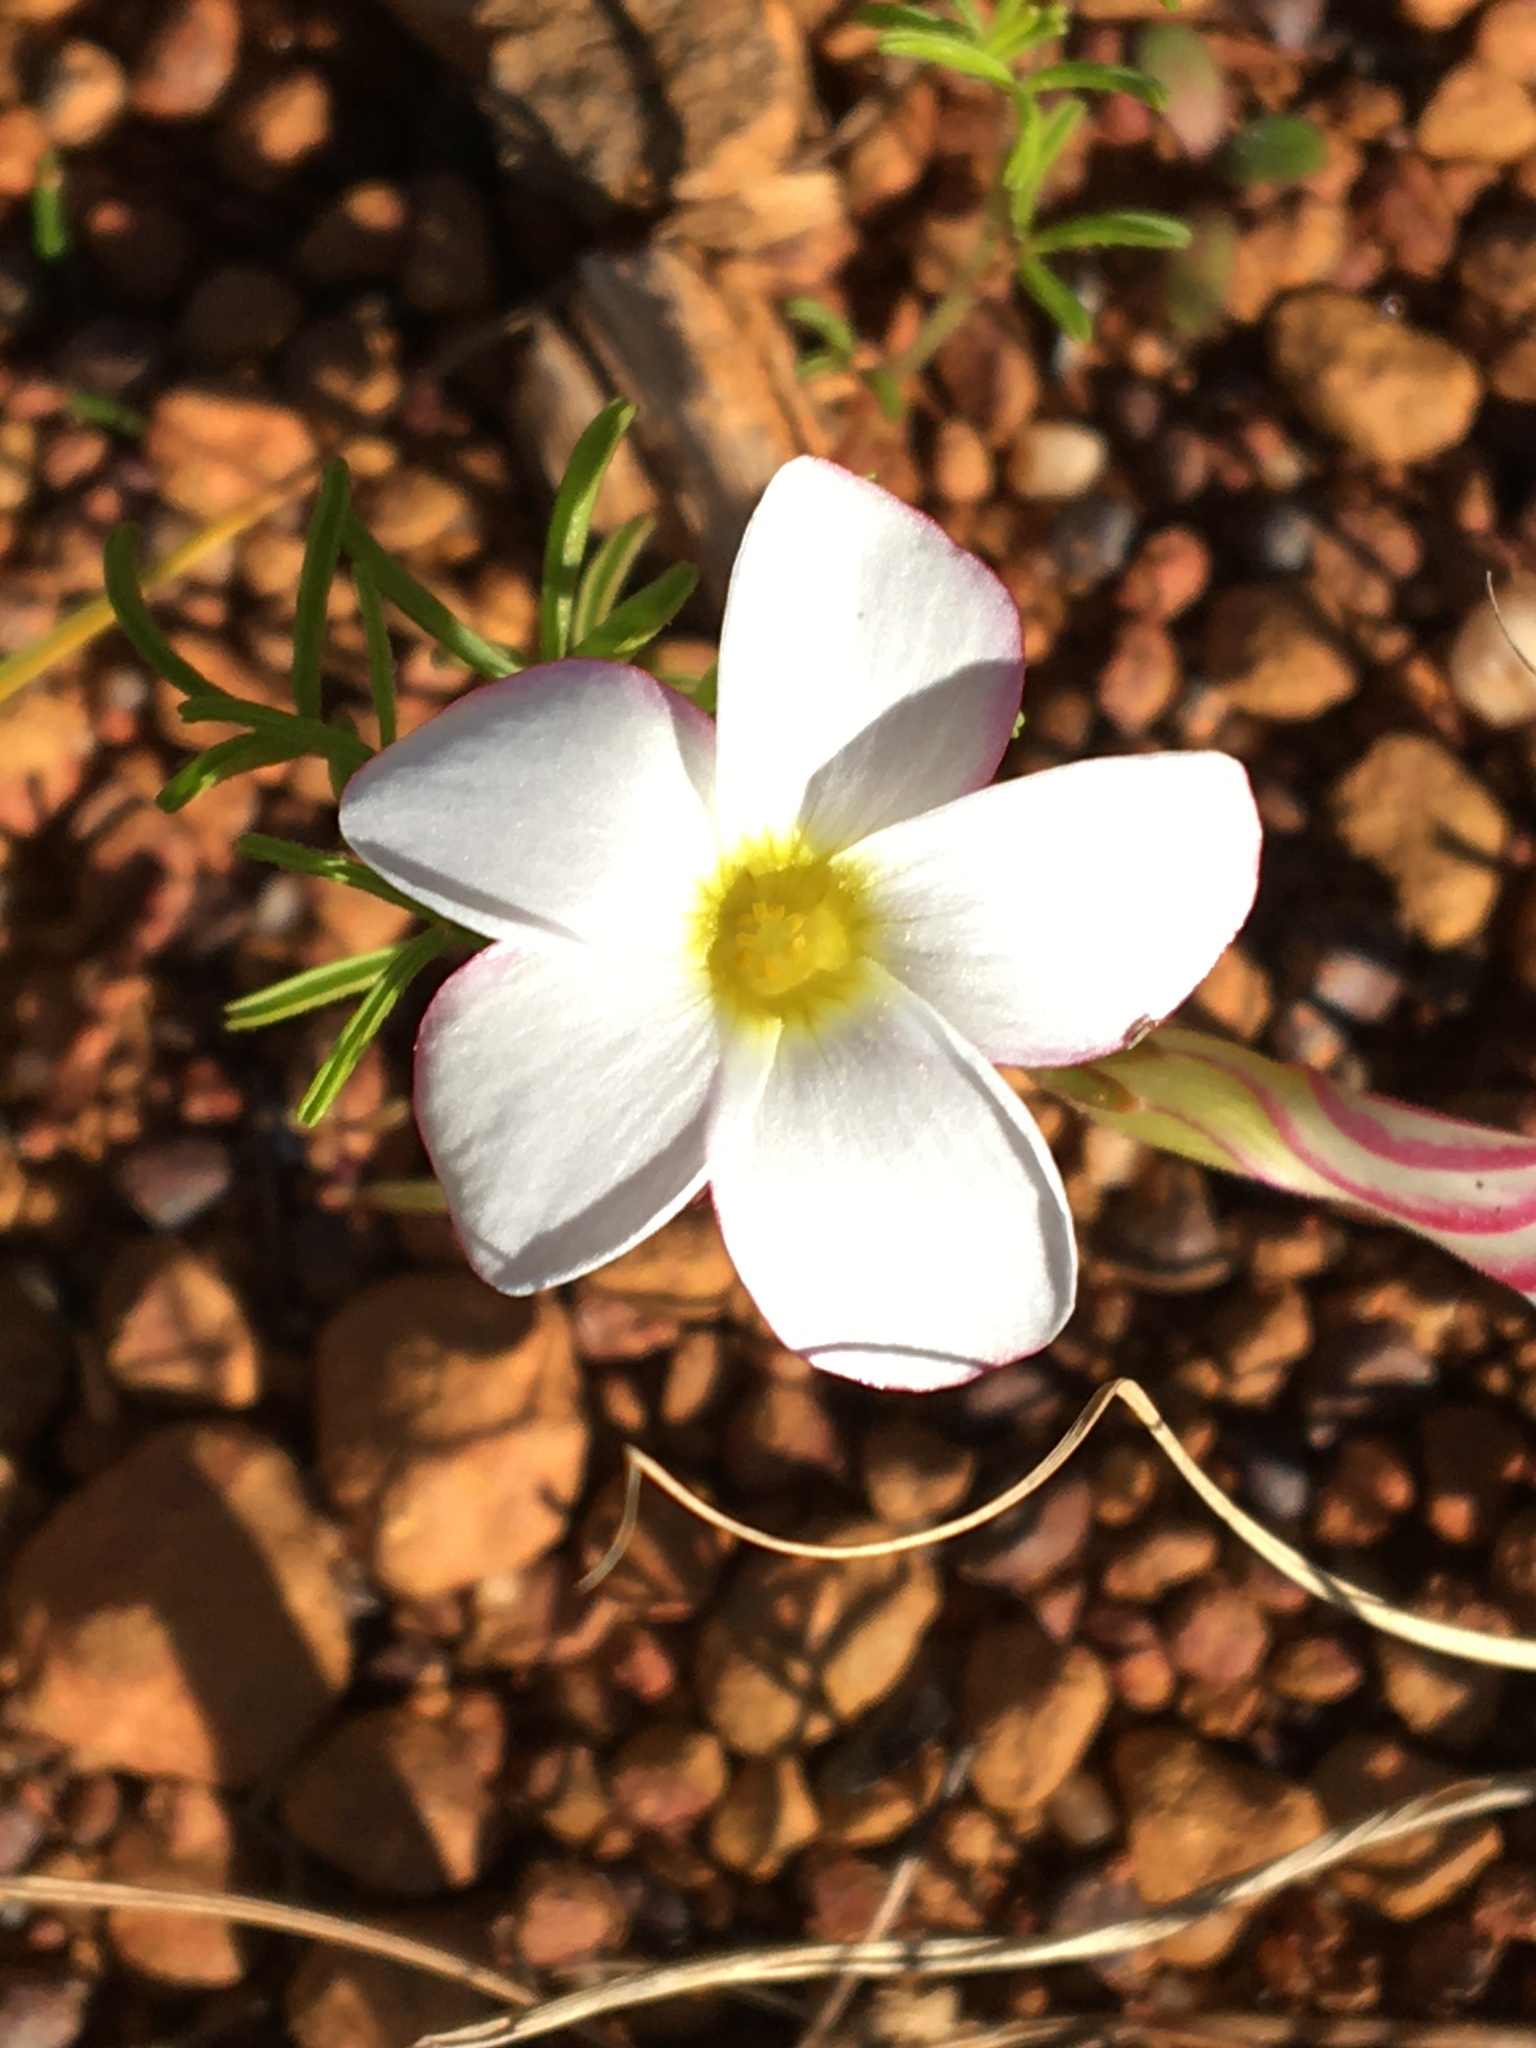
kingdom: Plantae
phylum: Tracheophyta
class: Magnoliopsida
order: Oxalidales
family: Oxalidaceae
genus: Oxalis
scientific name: Oxalis
